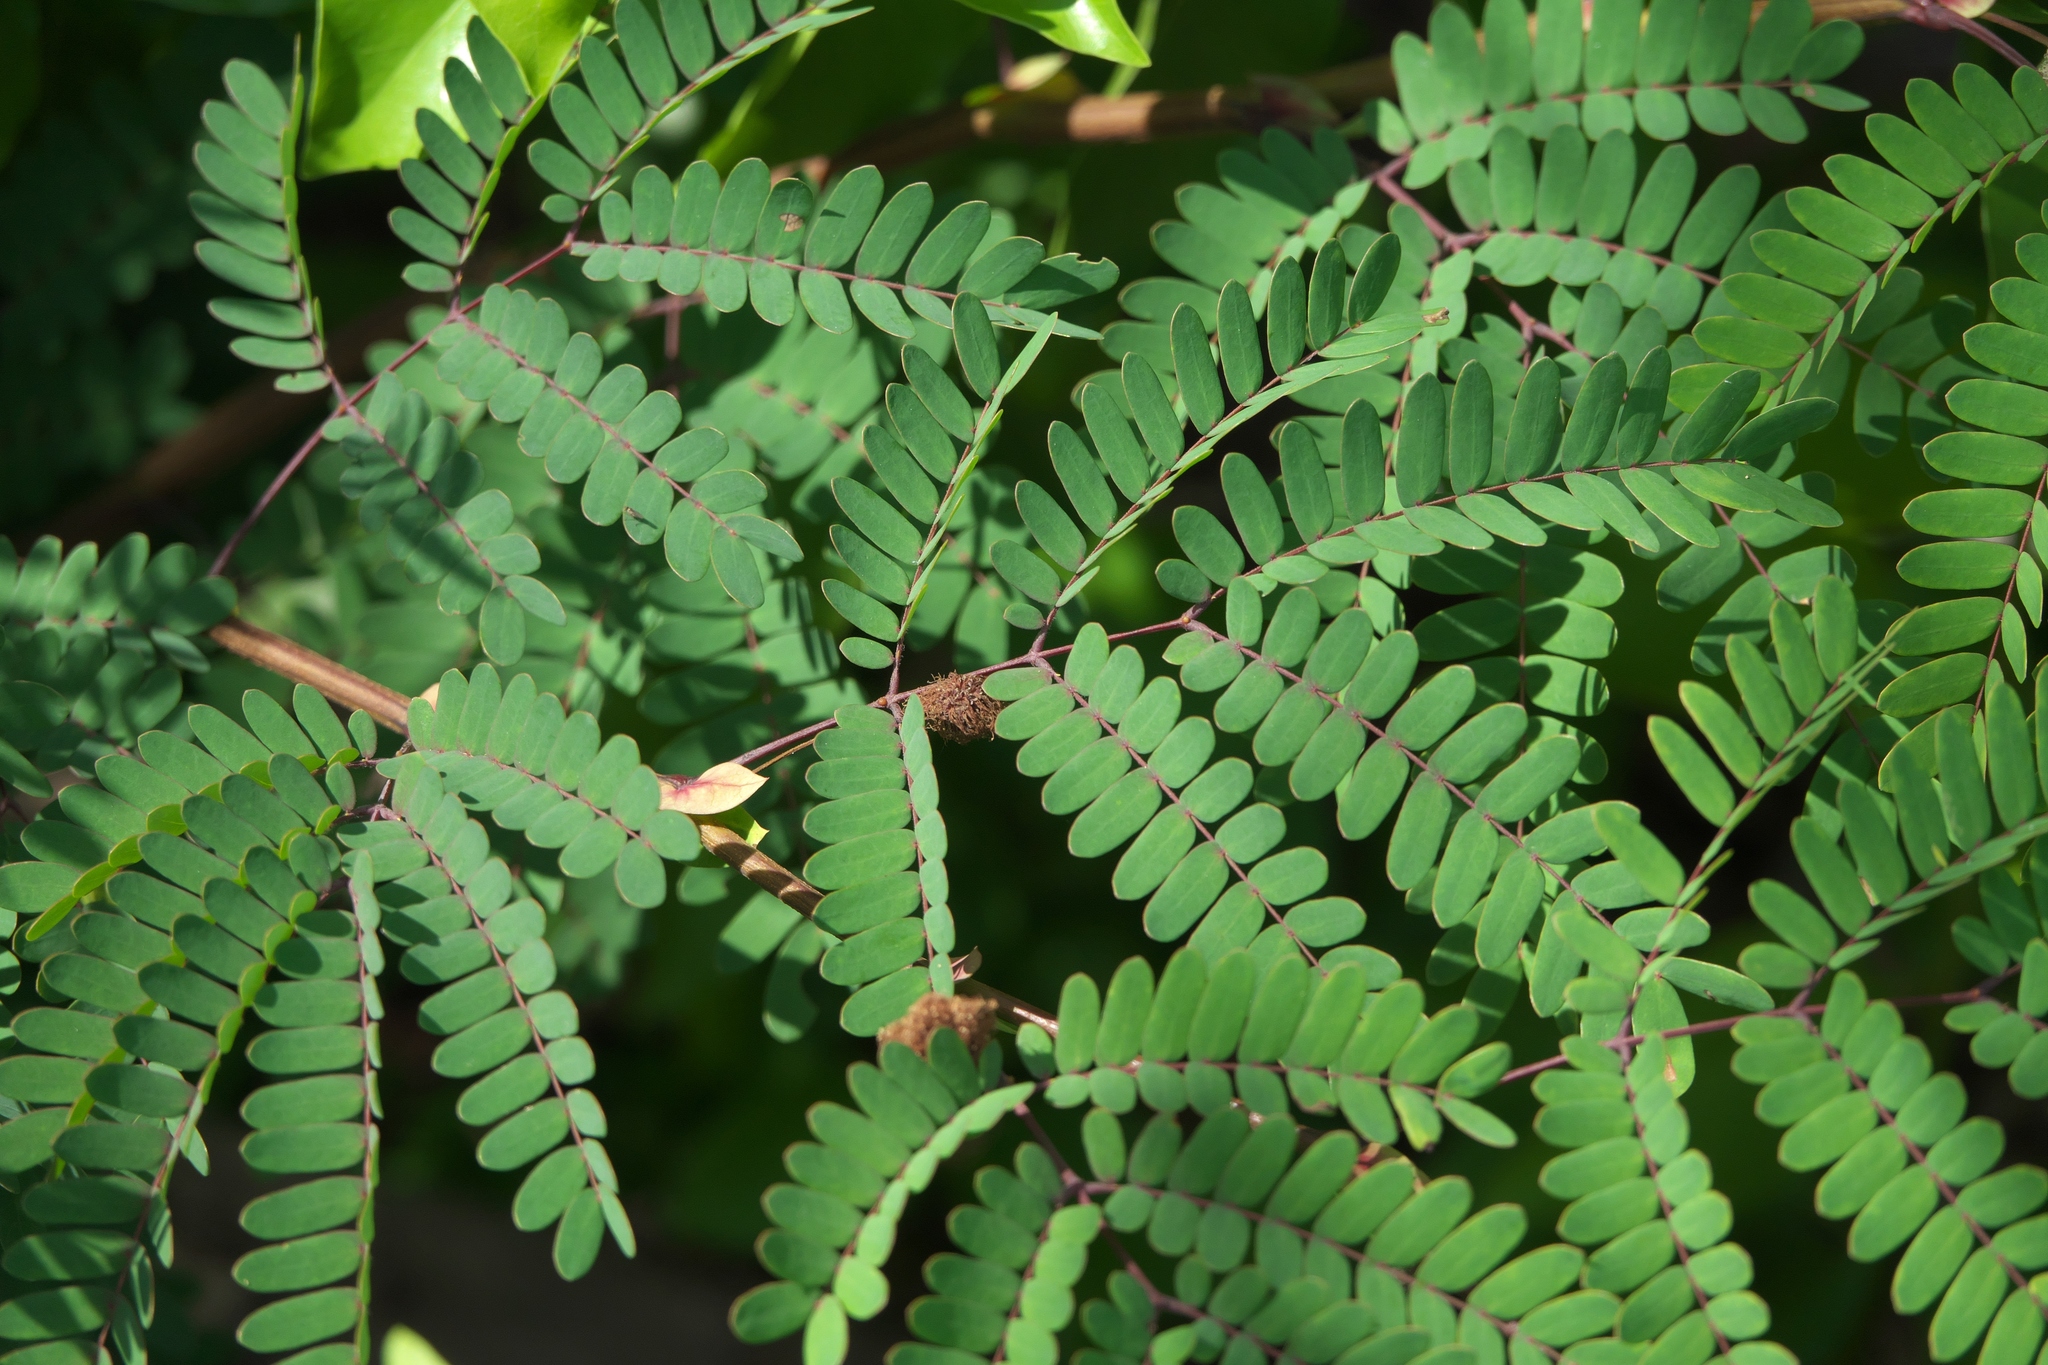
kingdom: Plantae
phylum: Tracheophyta
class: Magnoliopsida
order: Fabales
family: Fabaceae
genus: Lysiloma
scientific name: Lysiloma latisiliquum
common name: Wild tamarind
